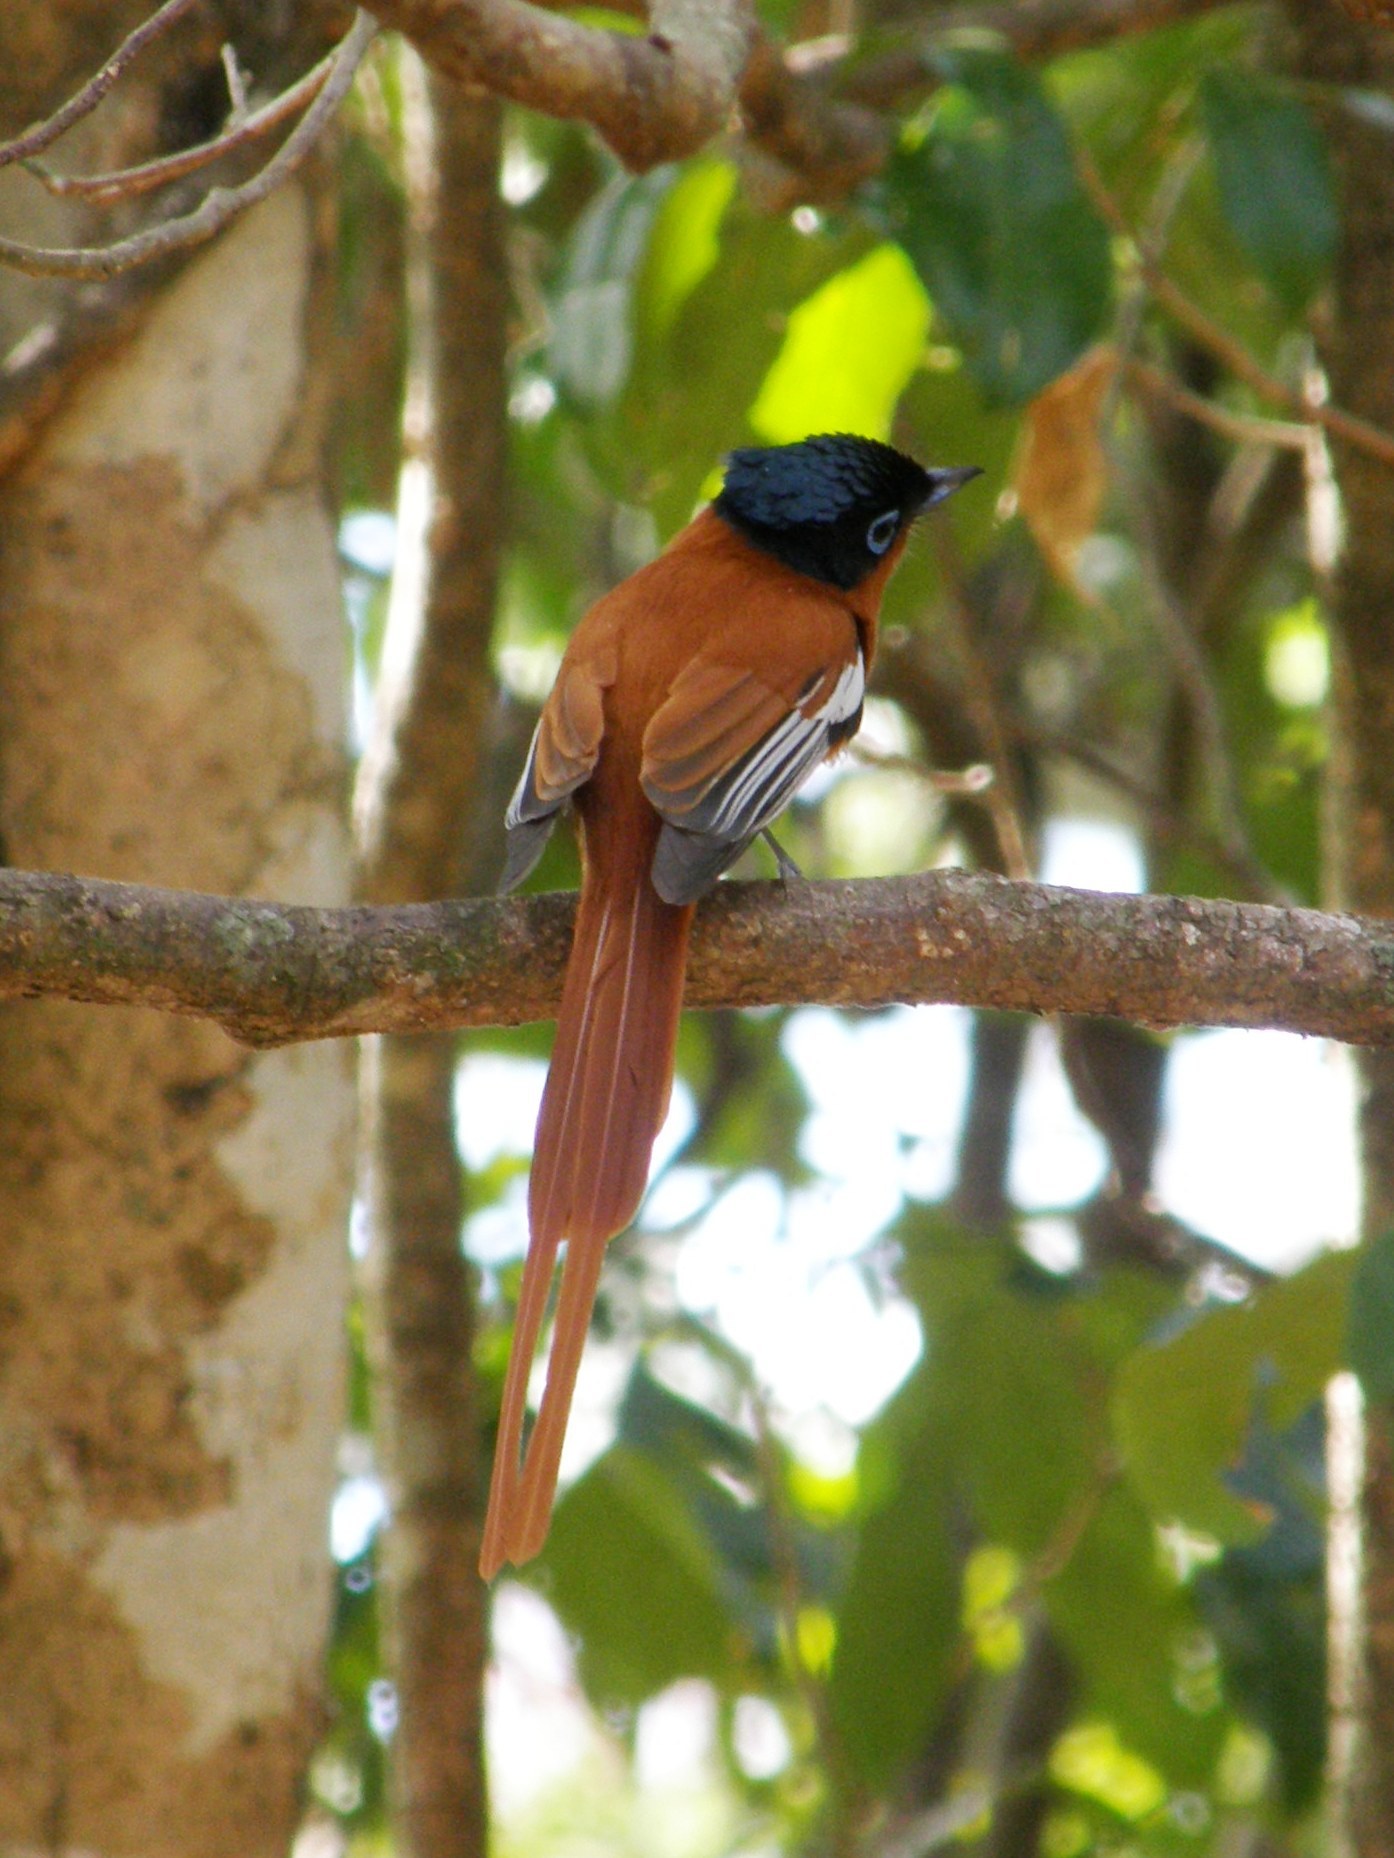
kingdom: Animalia
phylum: Chordata
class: Aves
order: Passeriformes
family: Monarchidae
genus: Terpsiphone
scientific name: Terpsiphone mutata
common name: Malagasy paradise flycatcher
